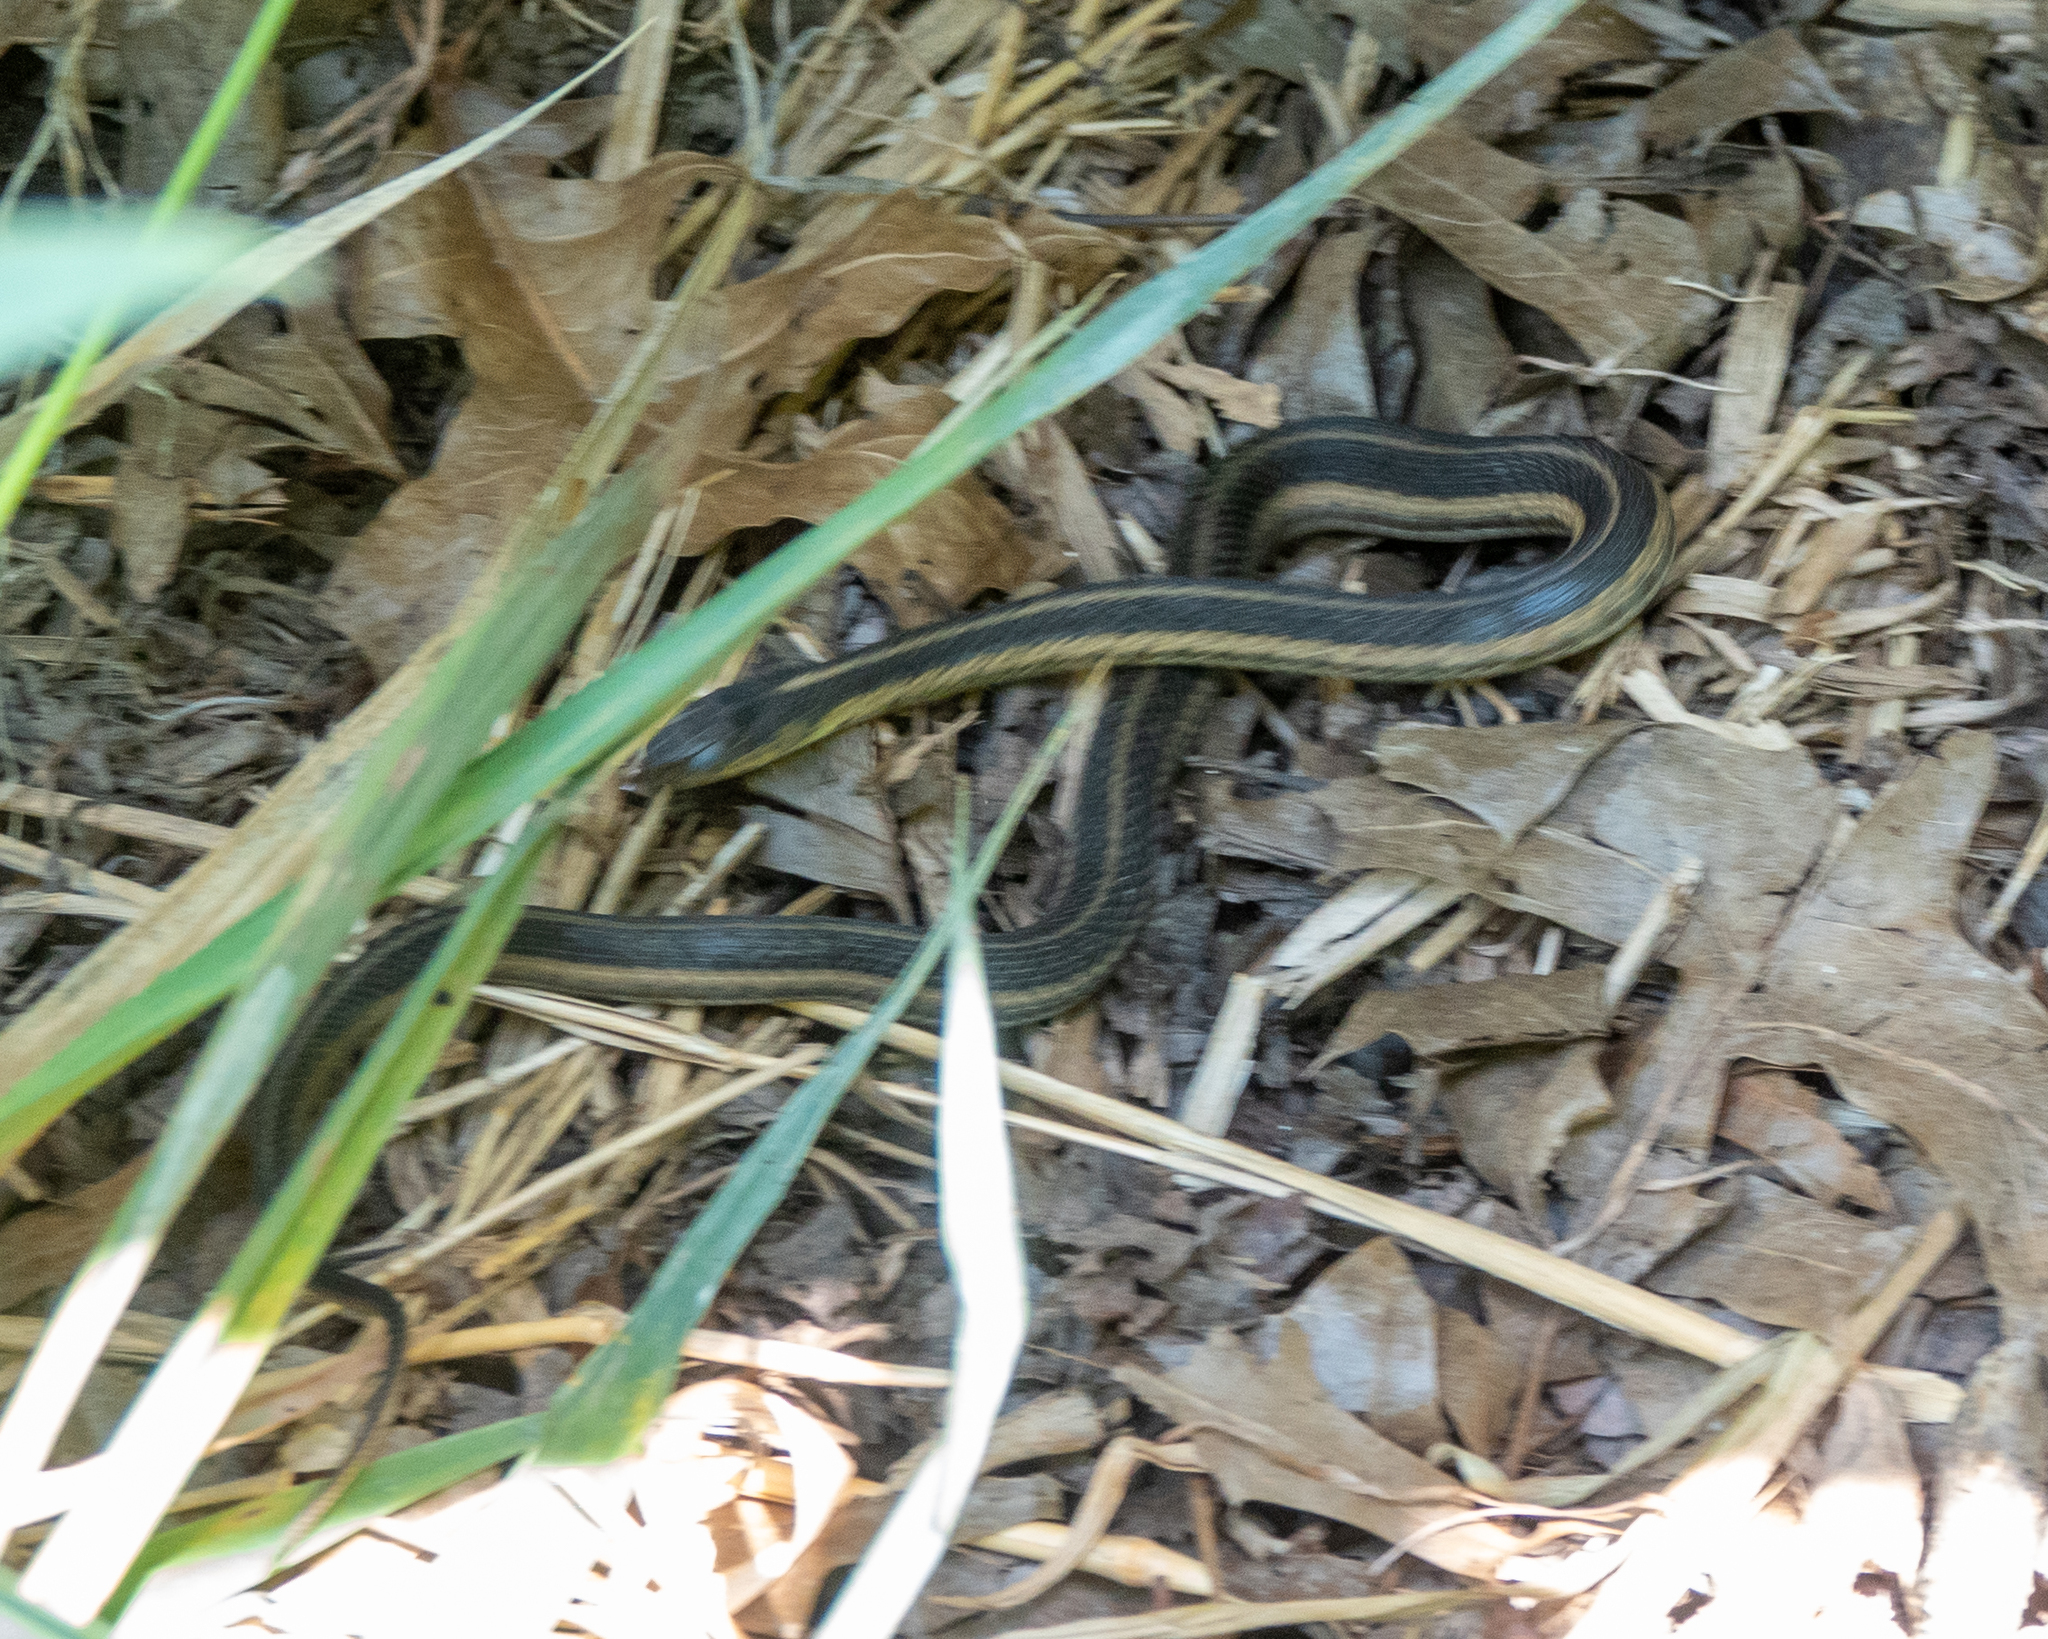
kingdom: Animalia
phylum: Chordata
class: Squamata
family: Colubridae
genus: Thamnophis
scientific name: Thamnophis sirtalis
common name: Common garter snake
